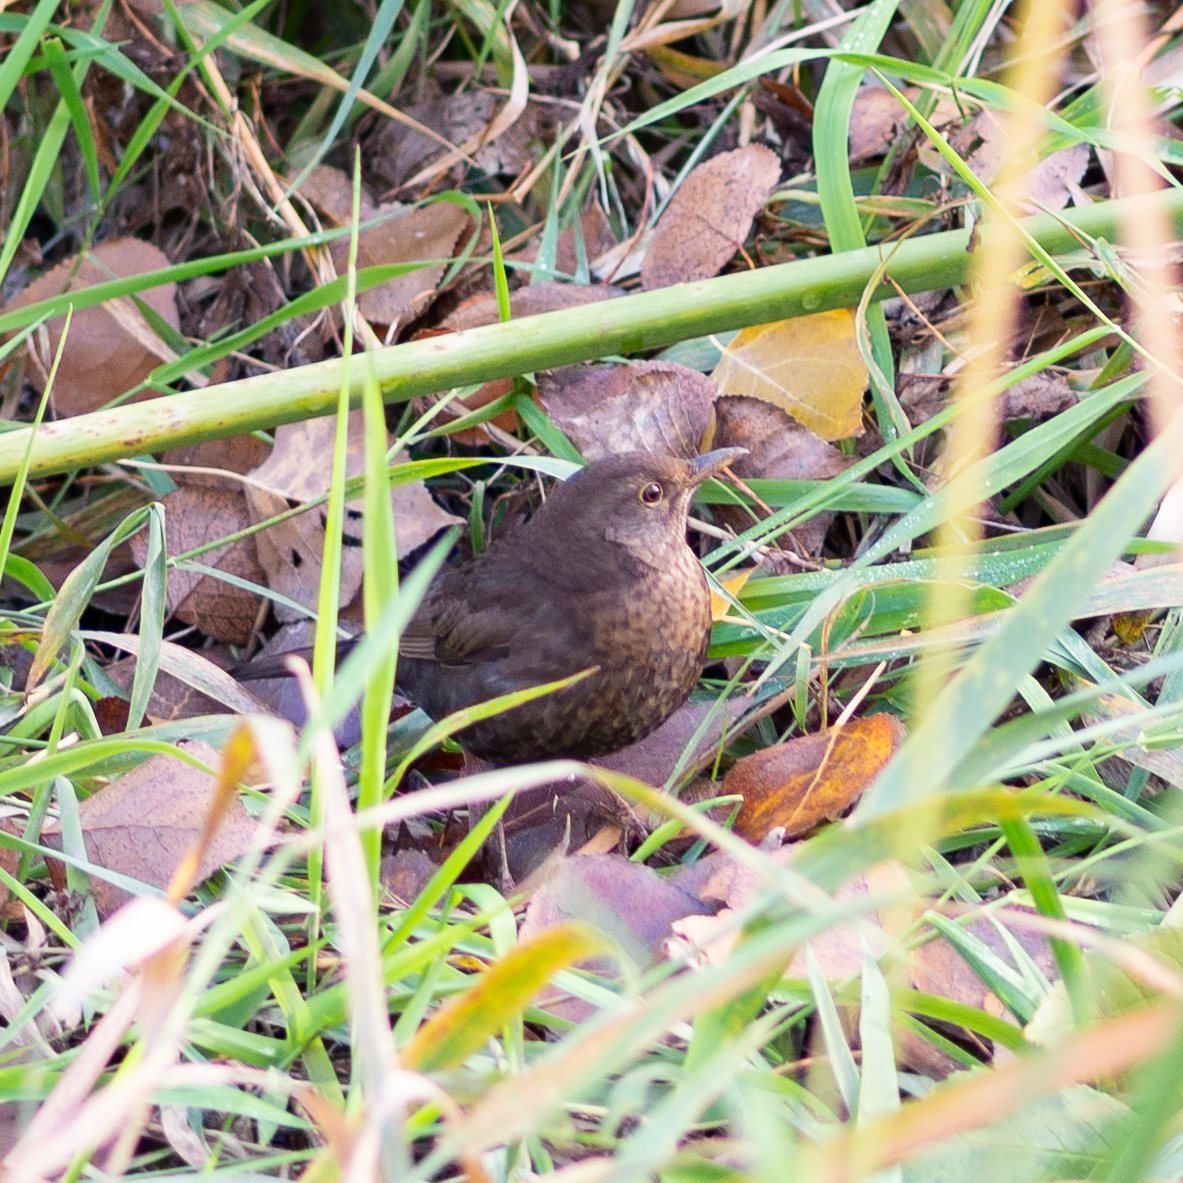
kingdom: Animalia
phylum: Chordata
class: Aves
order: Passeriformes
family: Turdidae
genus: Turdus
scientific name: Turdus merula
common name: Common blackbird
